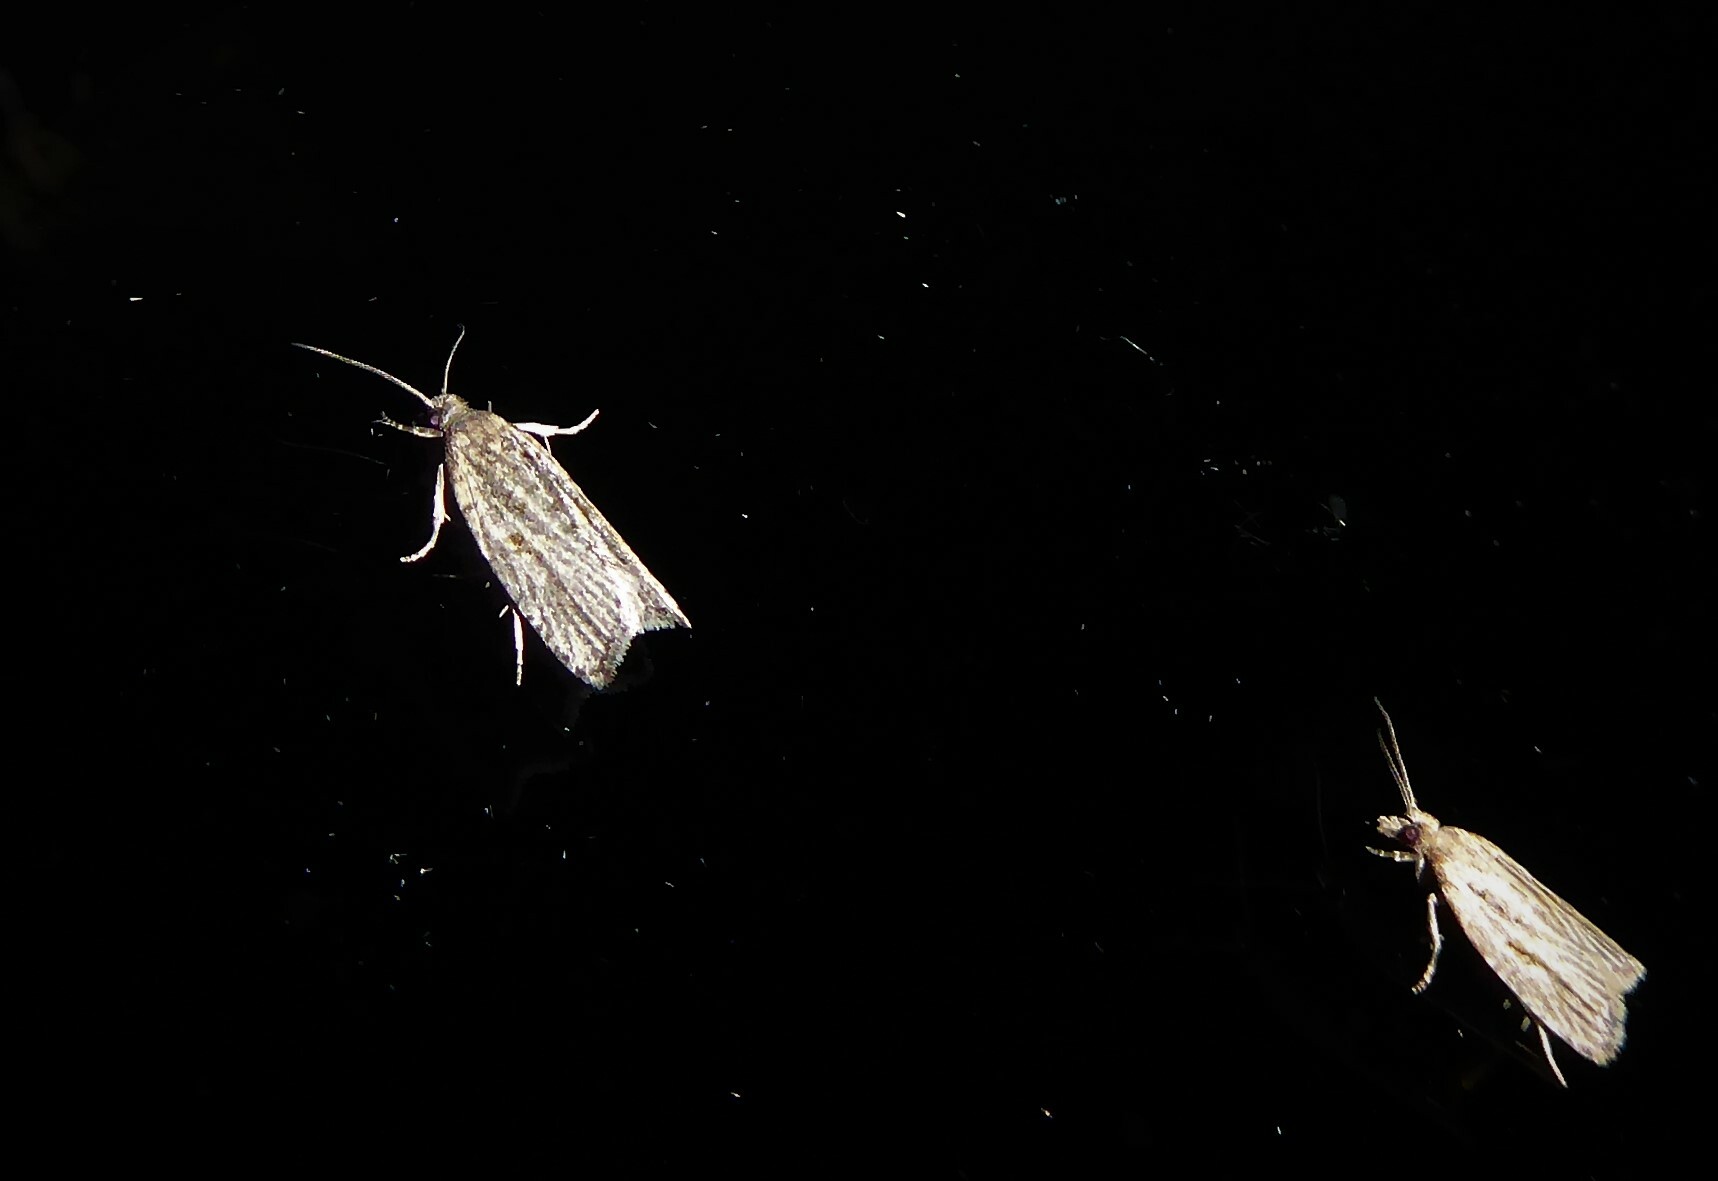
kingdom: Animalia
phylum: Arthropoda
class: Insecta
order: Lepidoptera
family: Tortricidae
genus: Capua
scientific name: Capua semiferana
